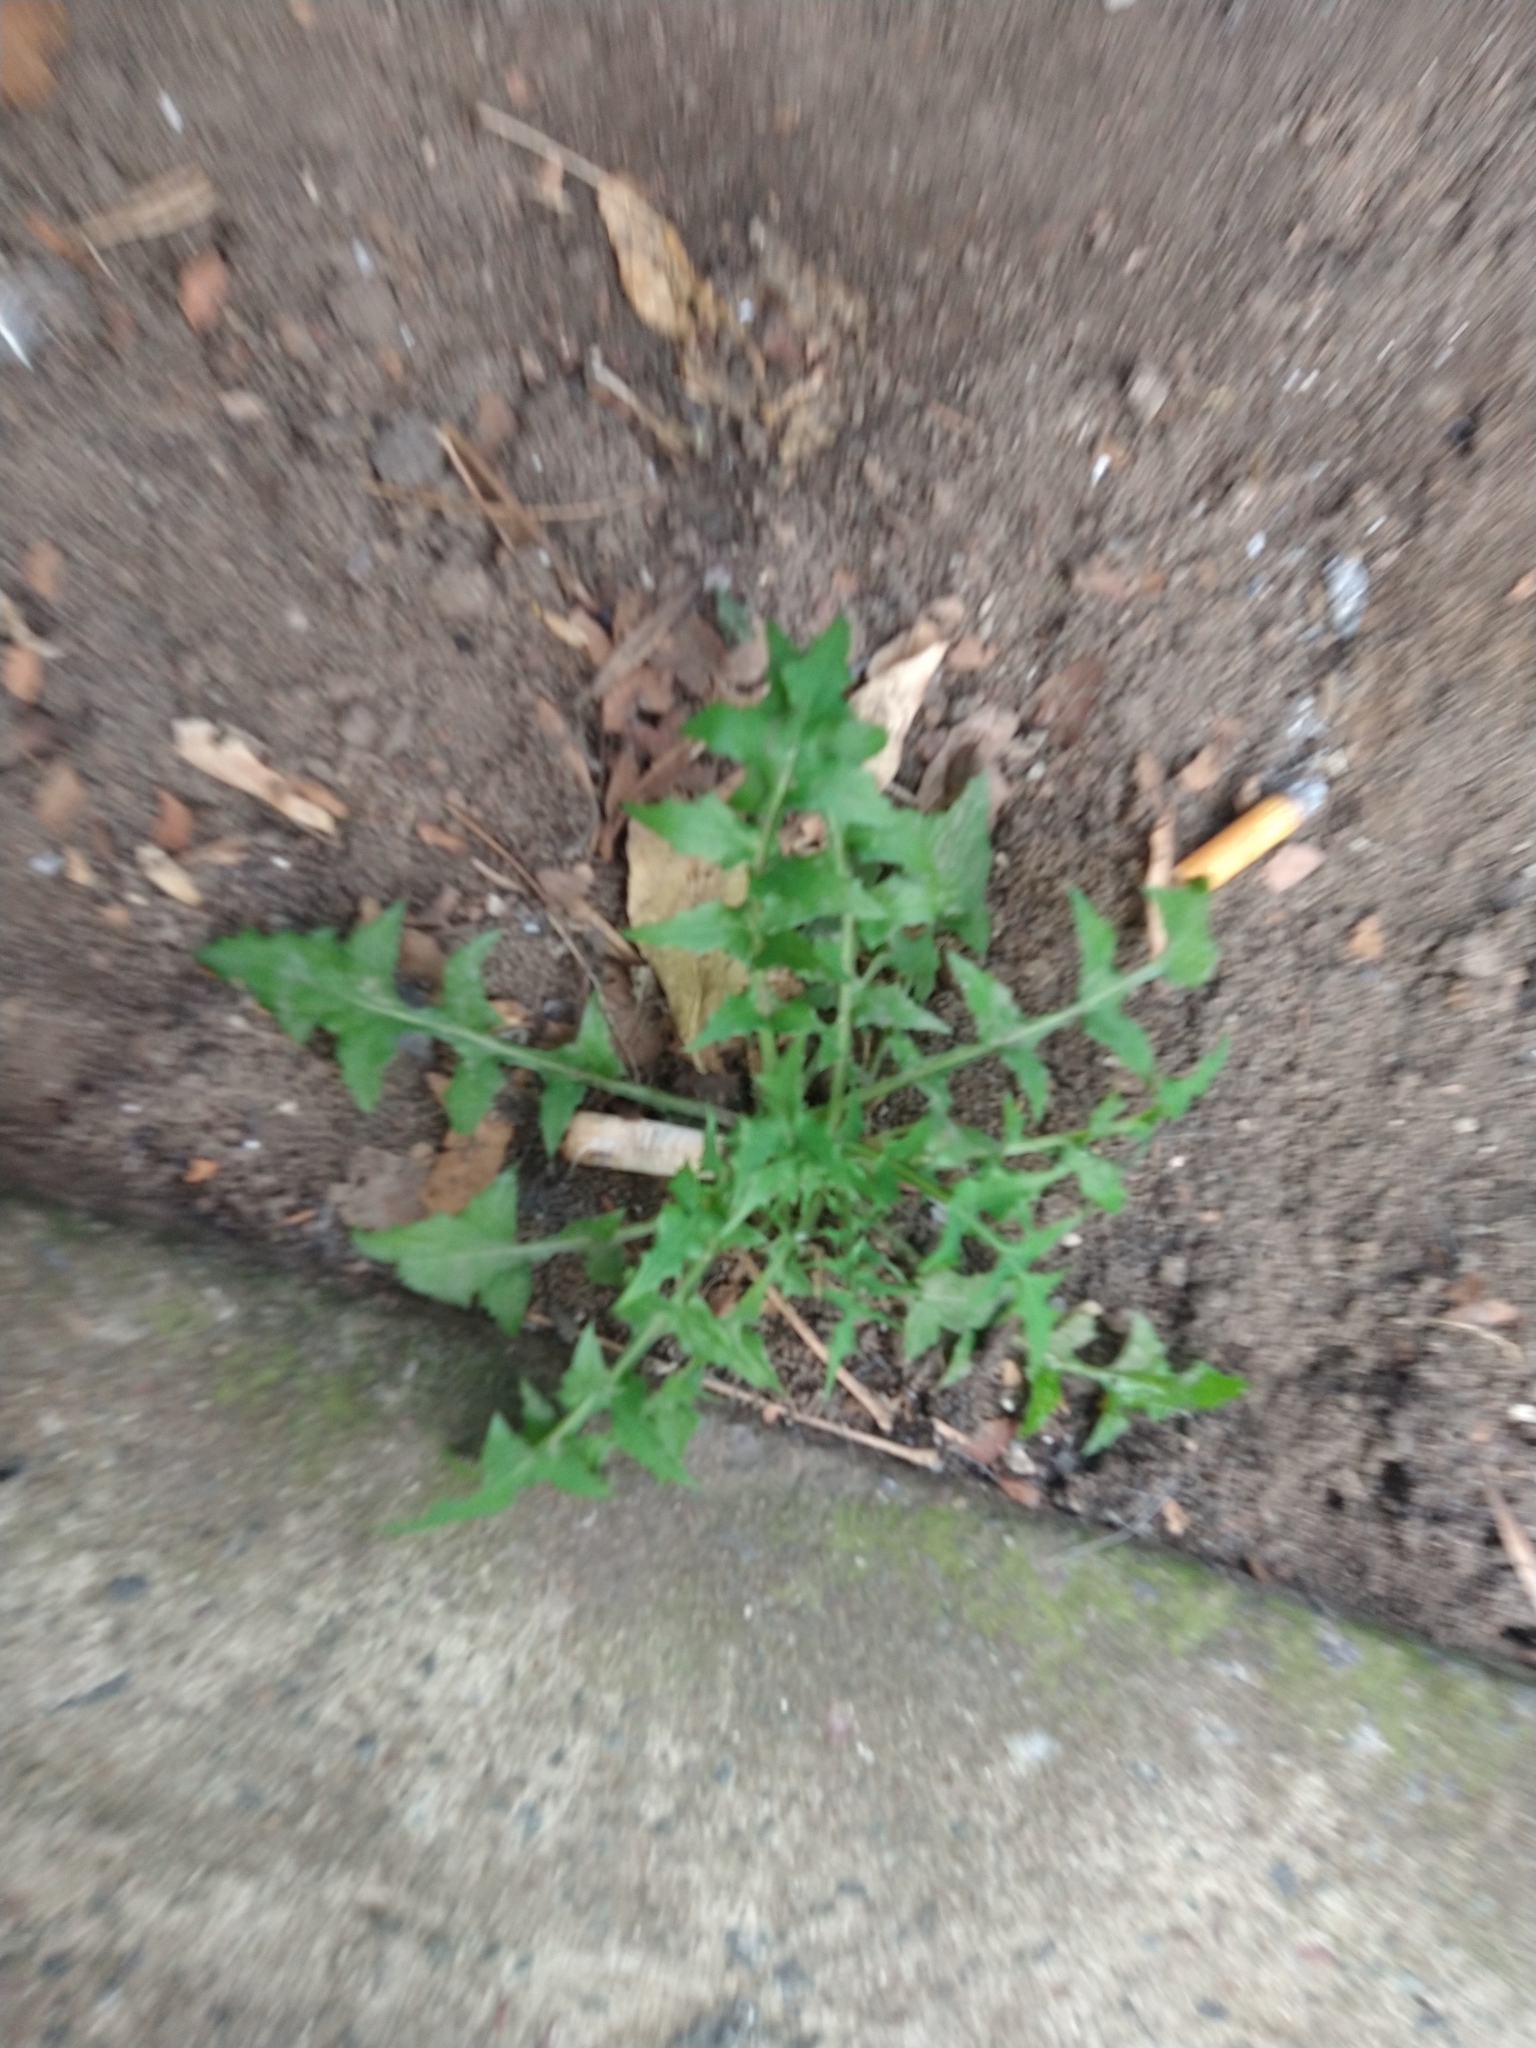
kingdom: Plantae
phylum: Tracheophyta
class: Magnoliopsida
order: Asterales
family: Asteraceae
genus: Sonchus
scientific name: Sonchus oleraceus
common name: Common sowthistle
